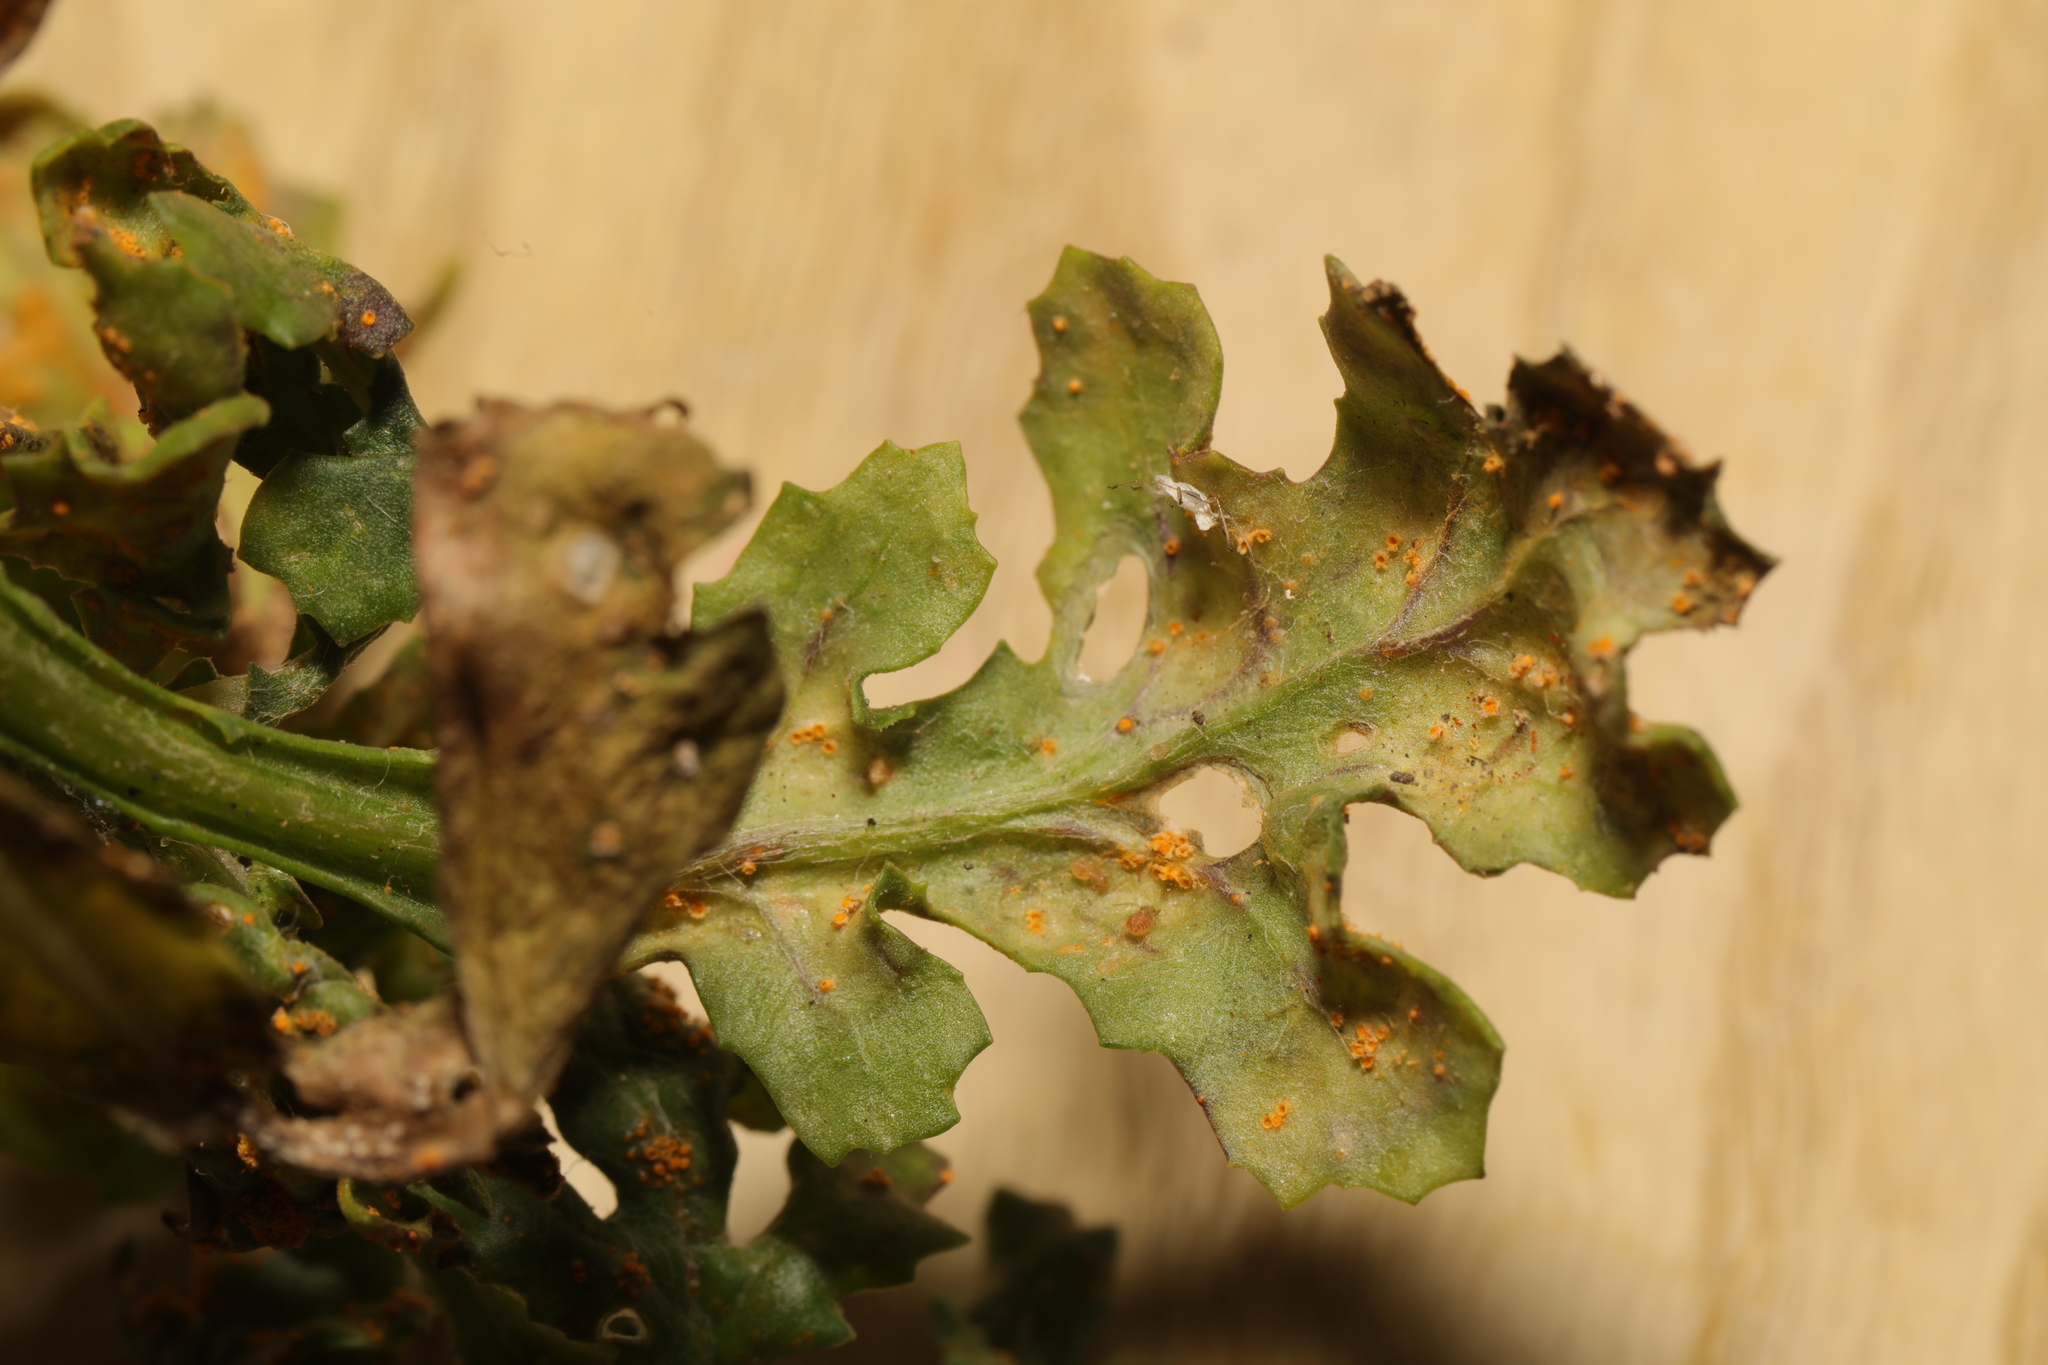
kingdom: Fungi
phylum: Basidiomycota
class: Pucciniomycetes
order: Pucciniales
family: Pucciniaceae
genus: Puccinia
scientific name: Puccinia lagenophorae
